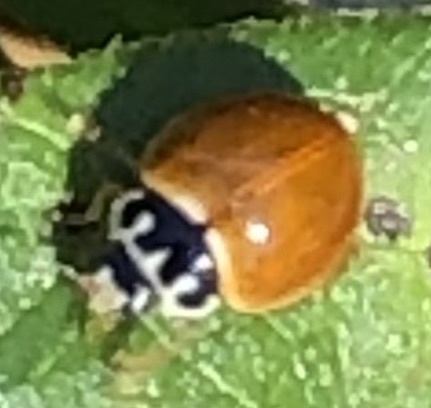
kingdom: Animalia
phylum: Arthropoda
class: Insecta
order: Coleoptera
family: Coccinellidae
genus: Cycloneda
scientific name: Cycloneda munda
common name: Polished lady beetle
